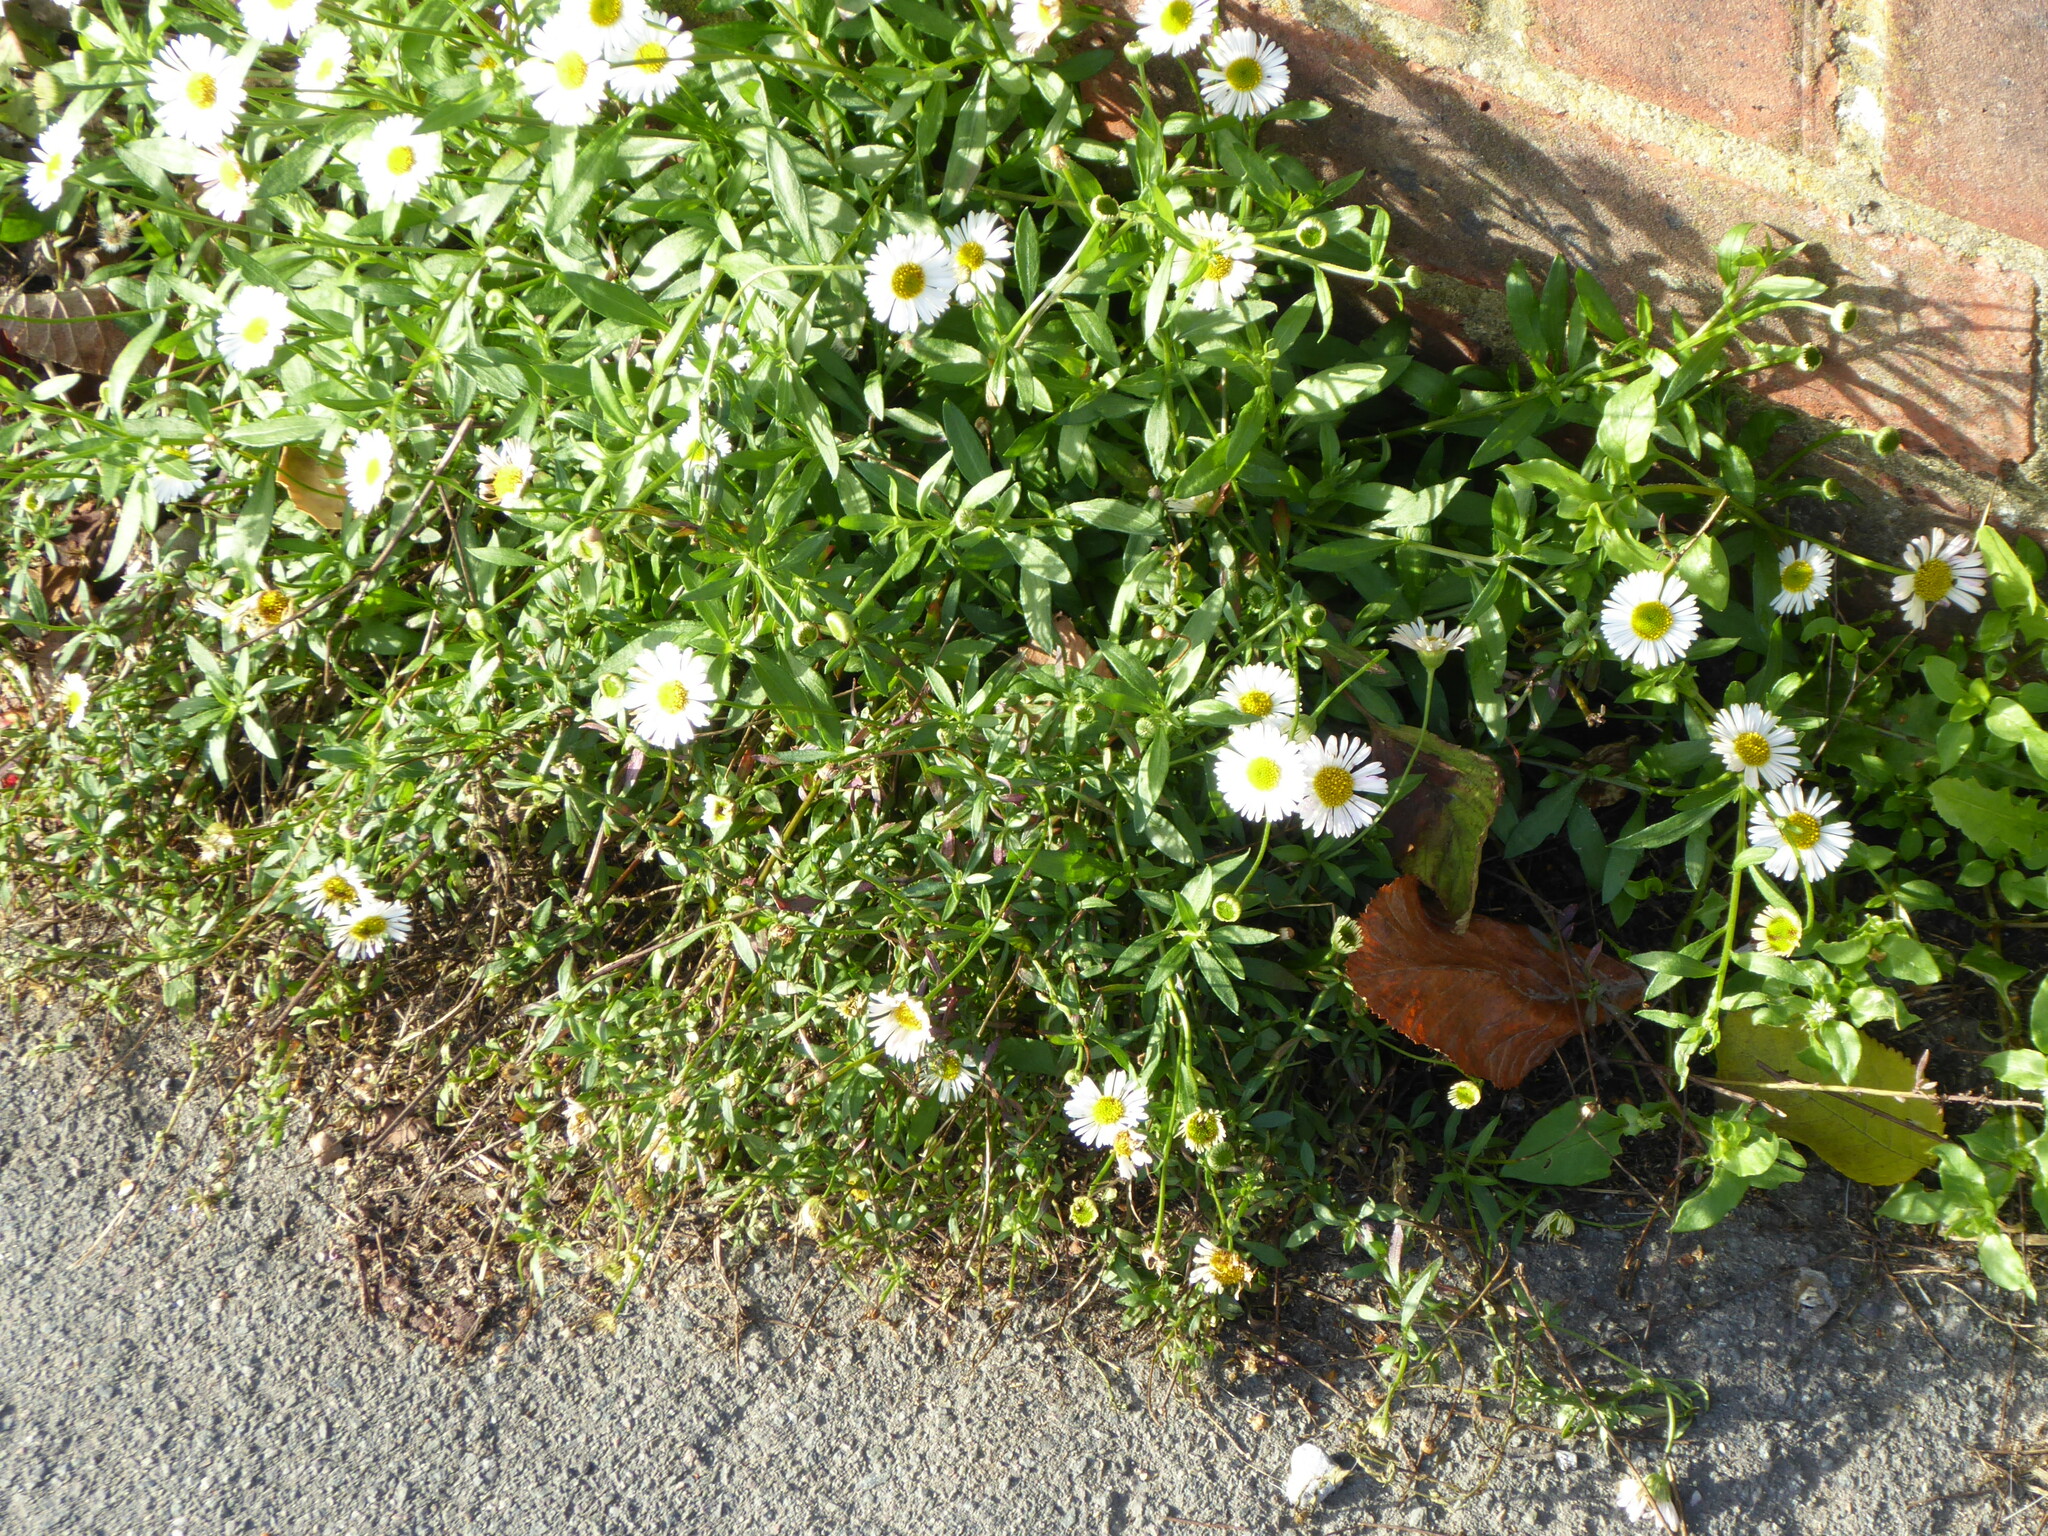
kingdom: Plantae
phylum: Tracheophyta
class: Magnoliopsida
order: Asterales
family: Asteraceae
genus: Erigeron
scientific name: Erigeron karvinskianus
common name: Mexican fleabane
